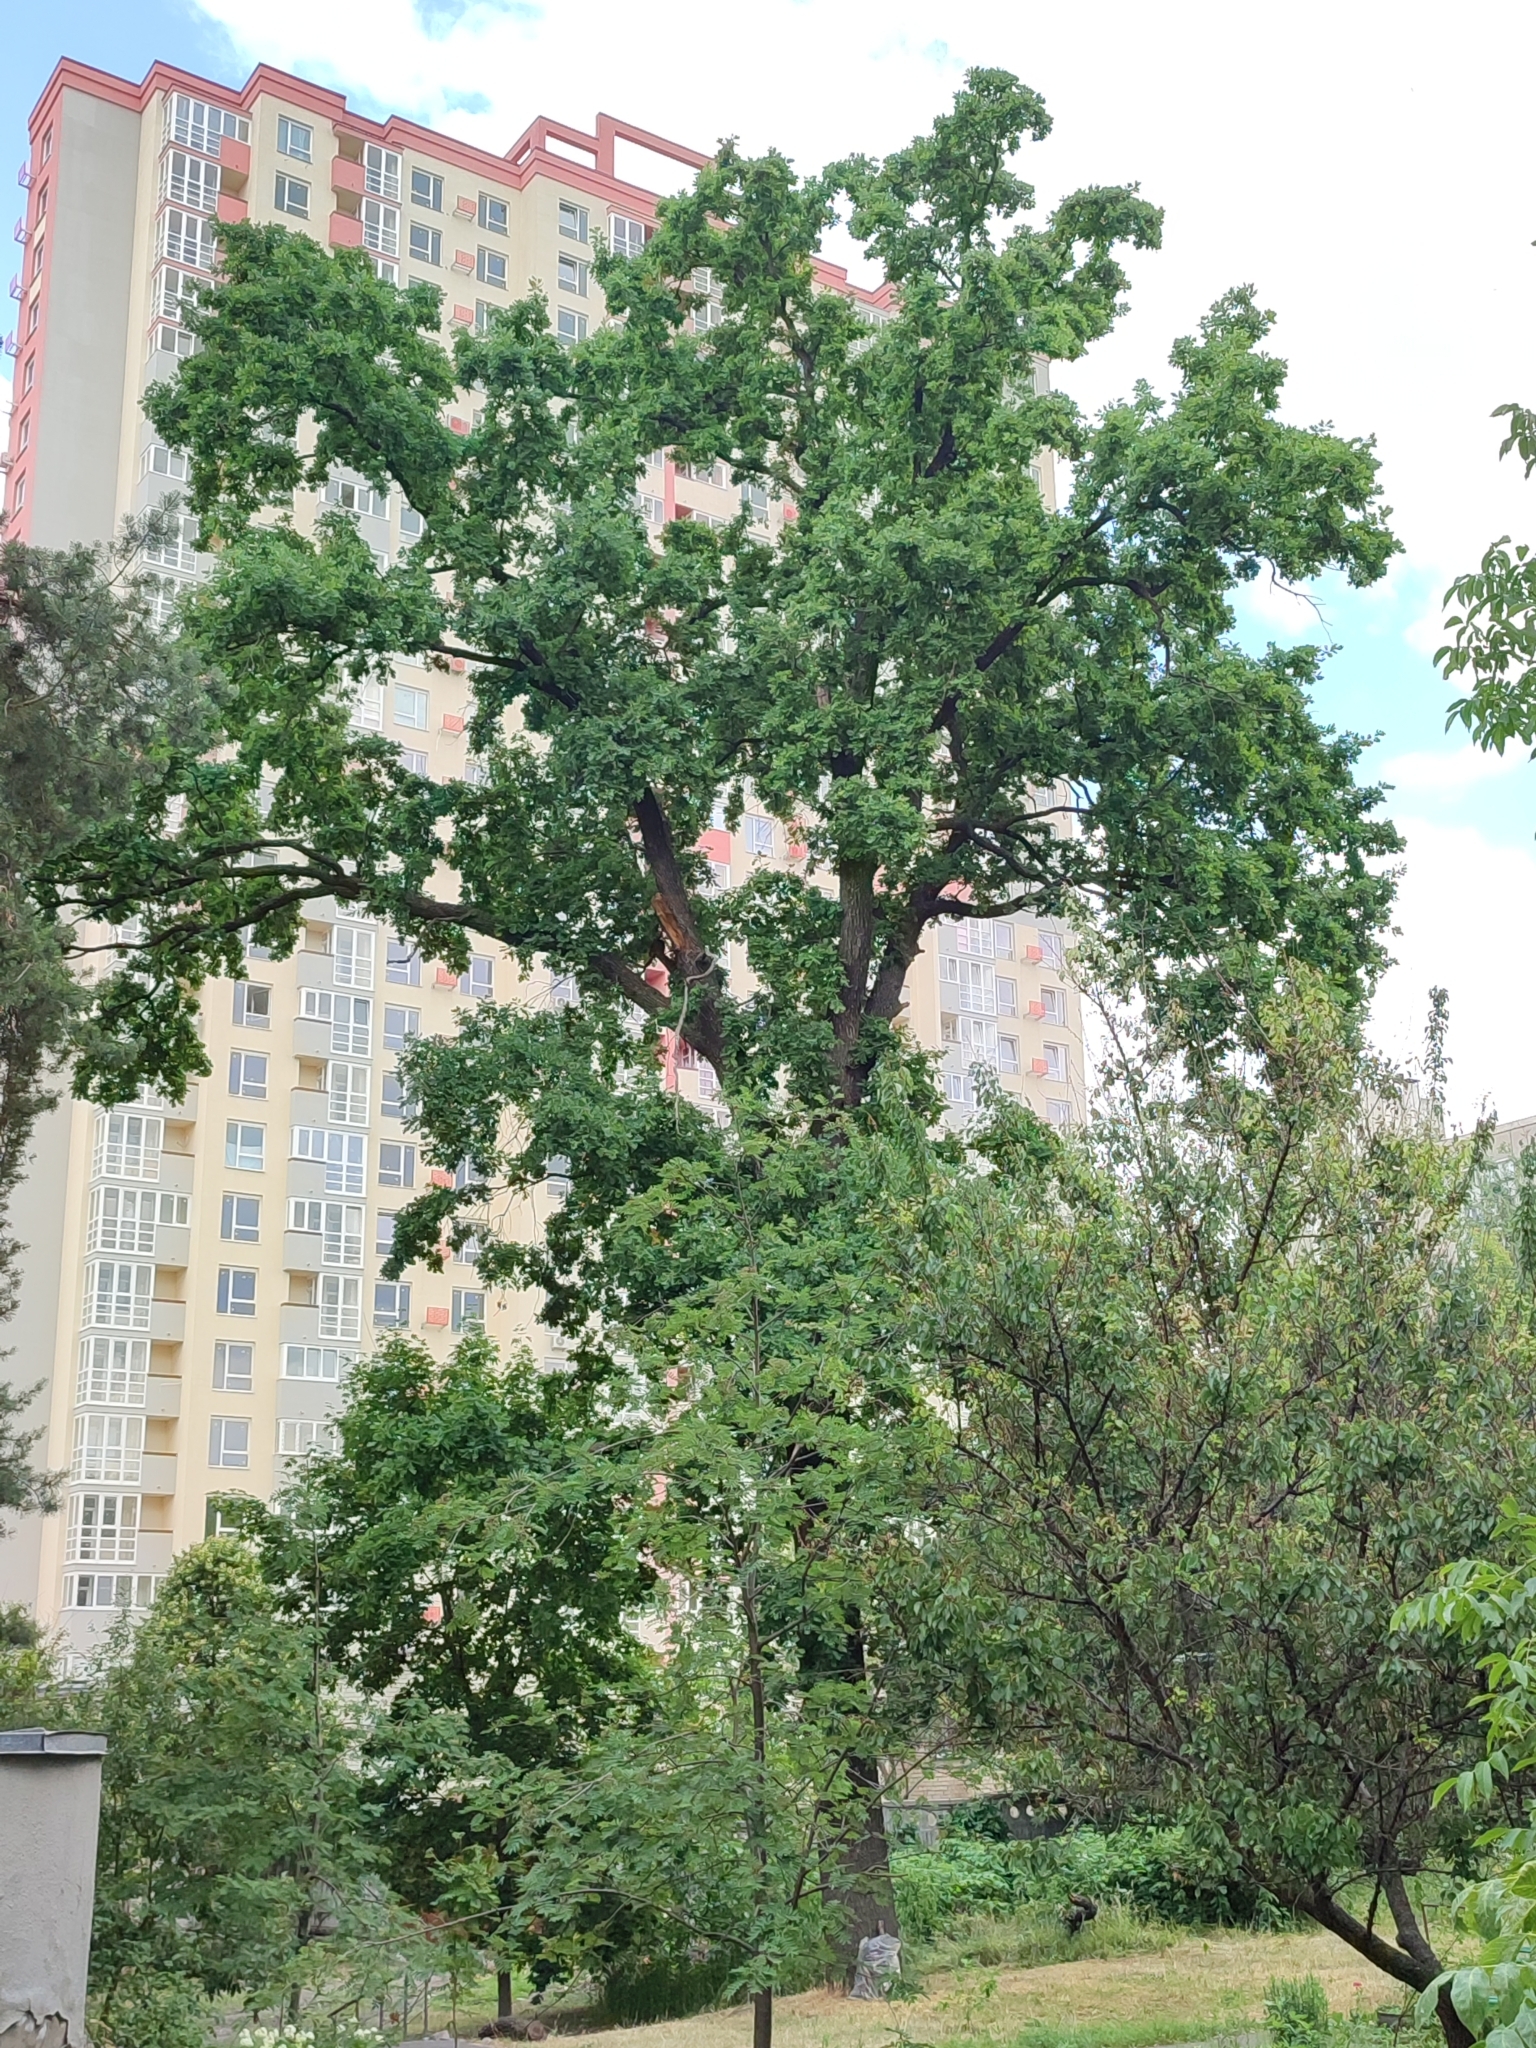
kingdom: Plantae
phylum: Tracheophyta
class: Magnoliopsida
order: Fagales
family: Fagaceae
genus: Quercus
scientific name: Quercus robur
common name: Pedunculate oak
